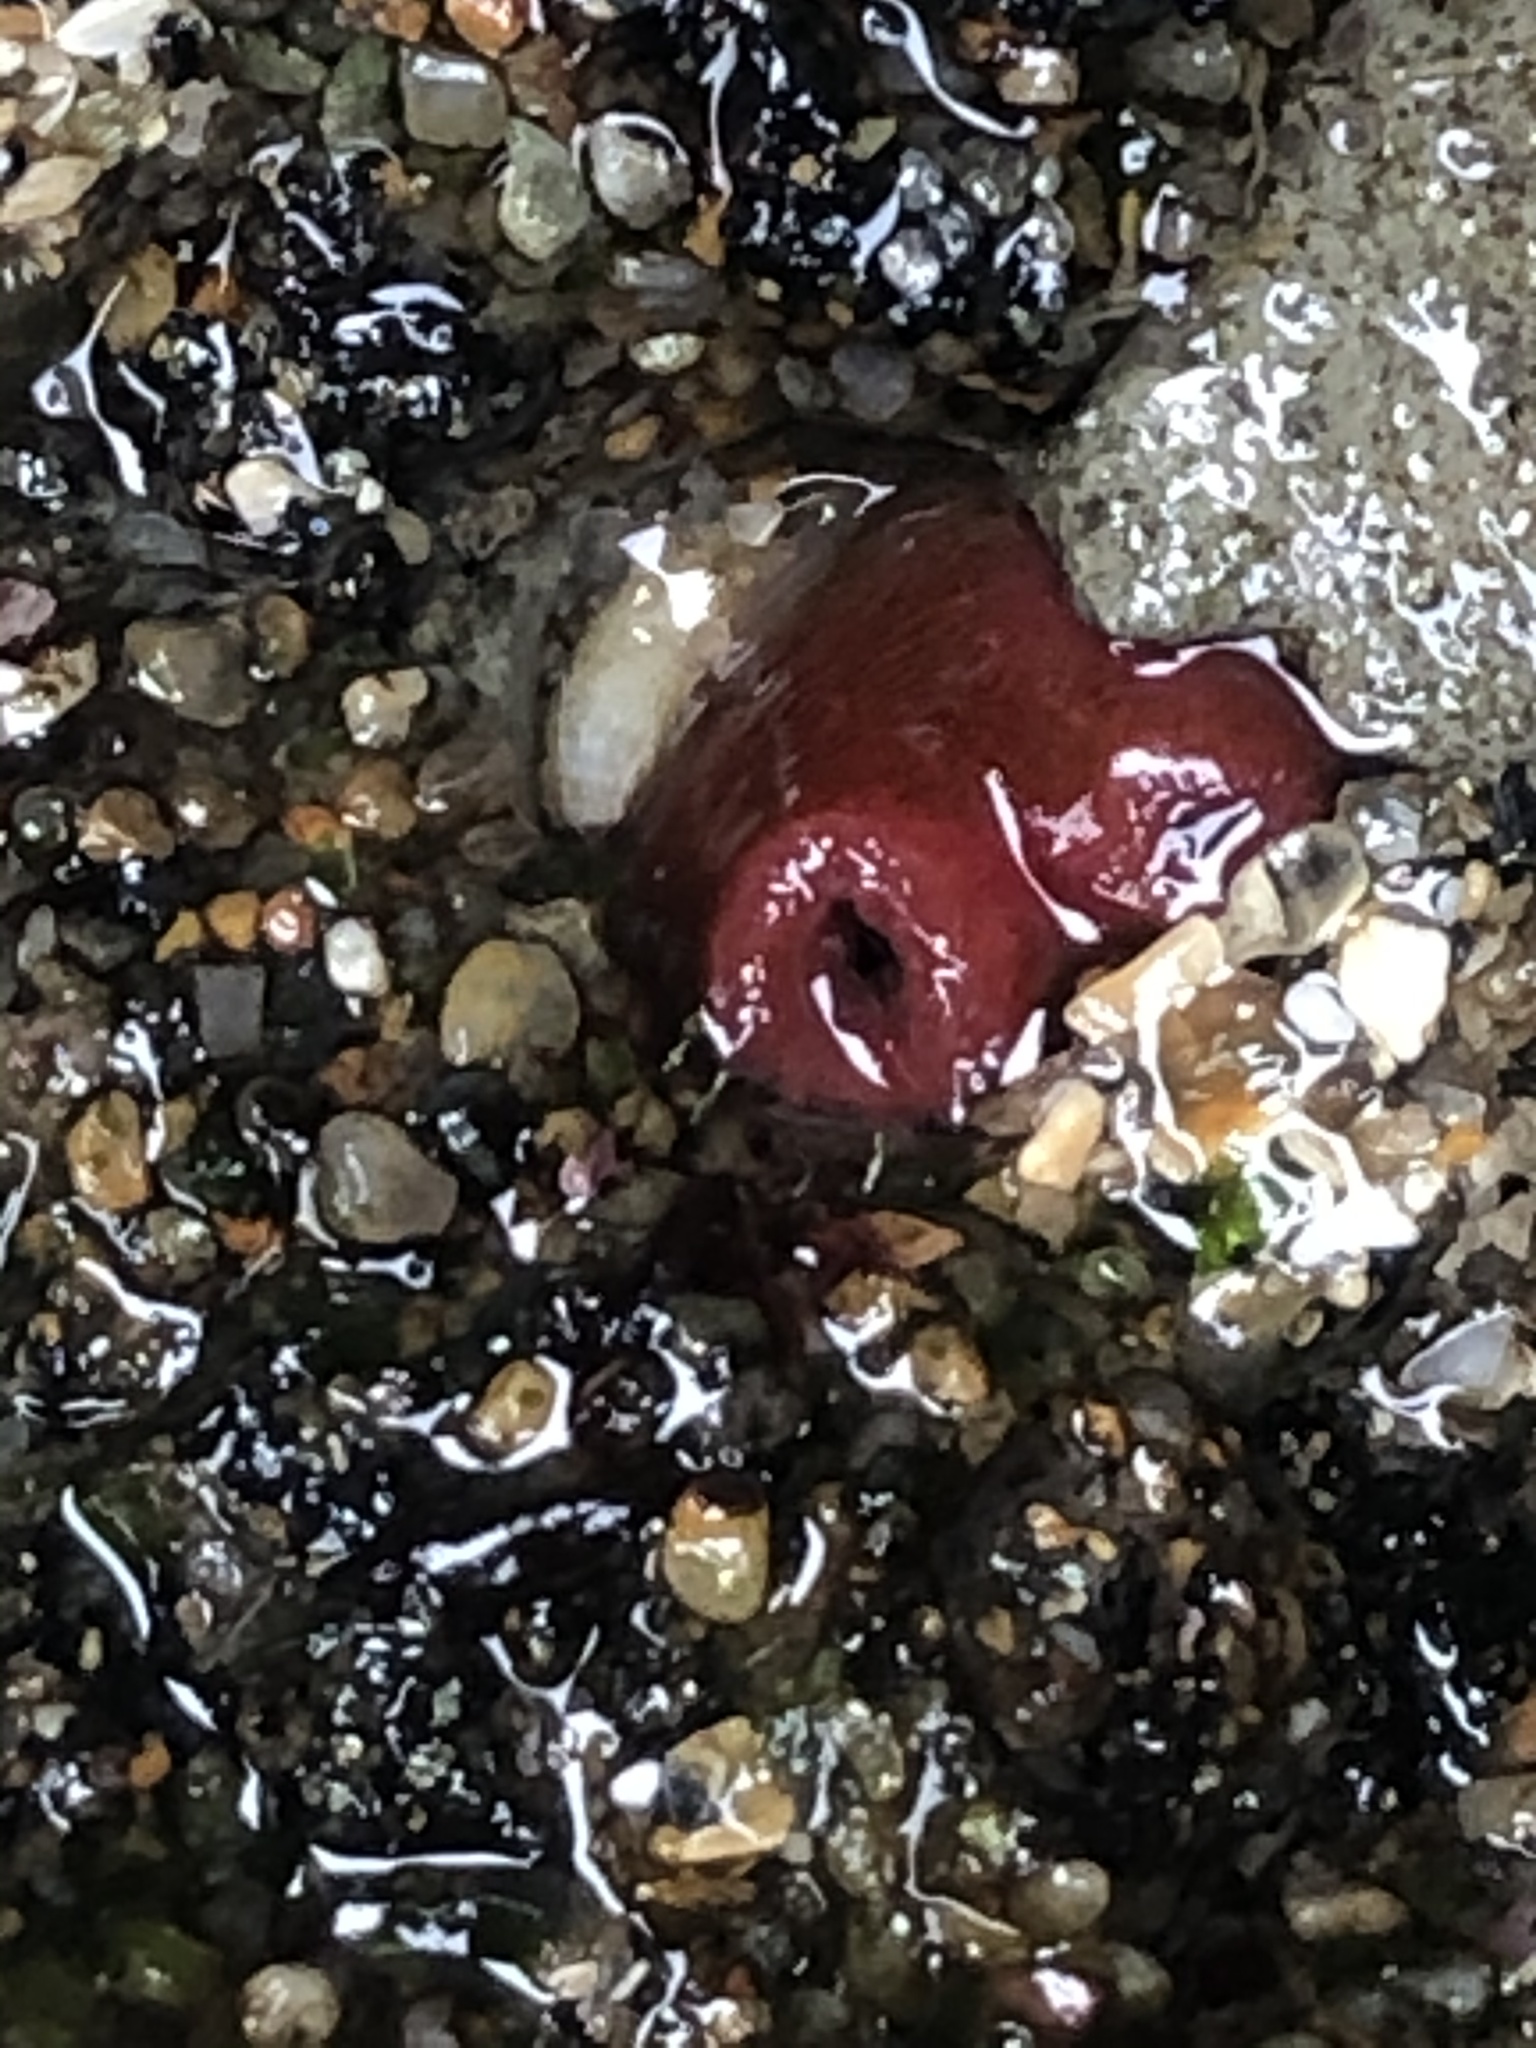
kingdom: Animalia
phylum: Mollusca
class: Bivalvia
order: Adapedonta
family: Hiatellidae
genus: Hiatella
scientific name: Hiatella arctica
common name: Arctic hiatella
